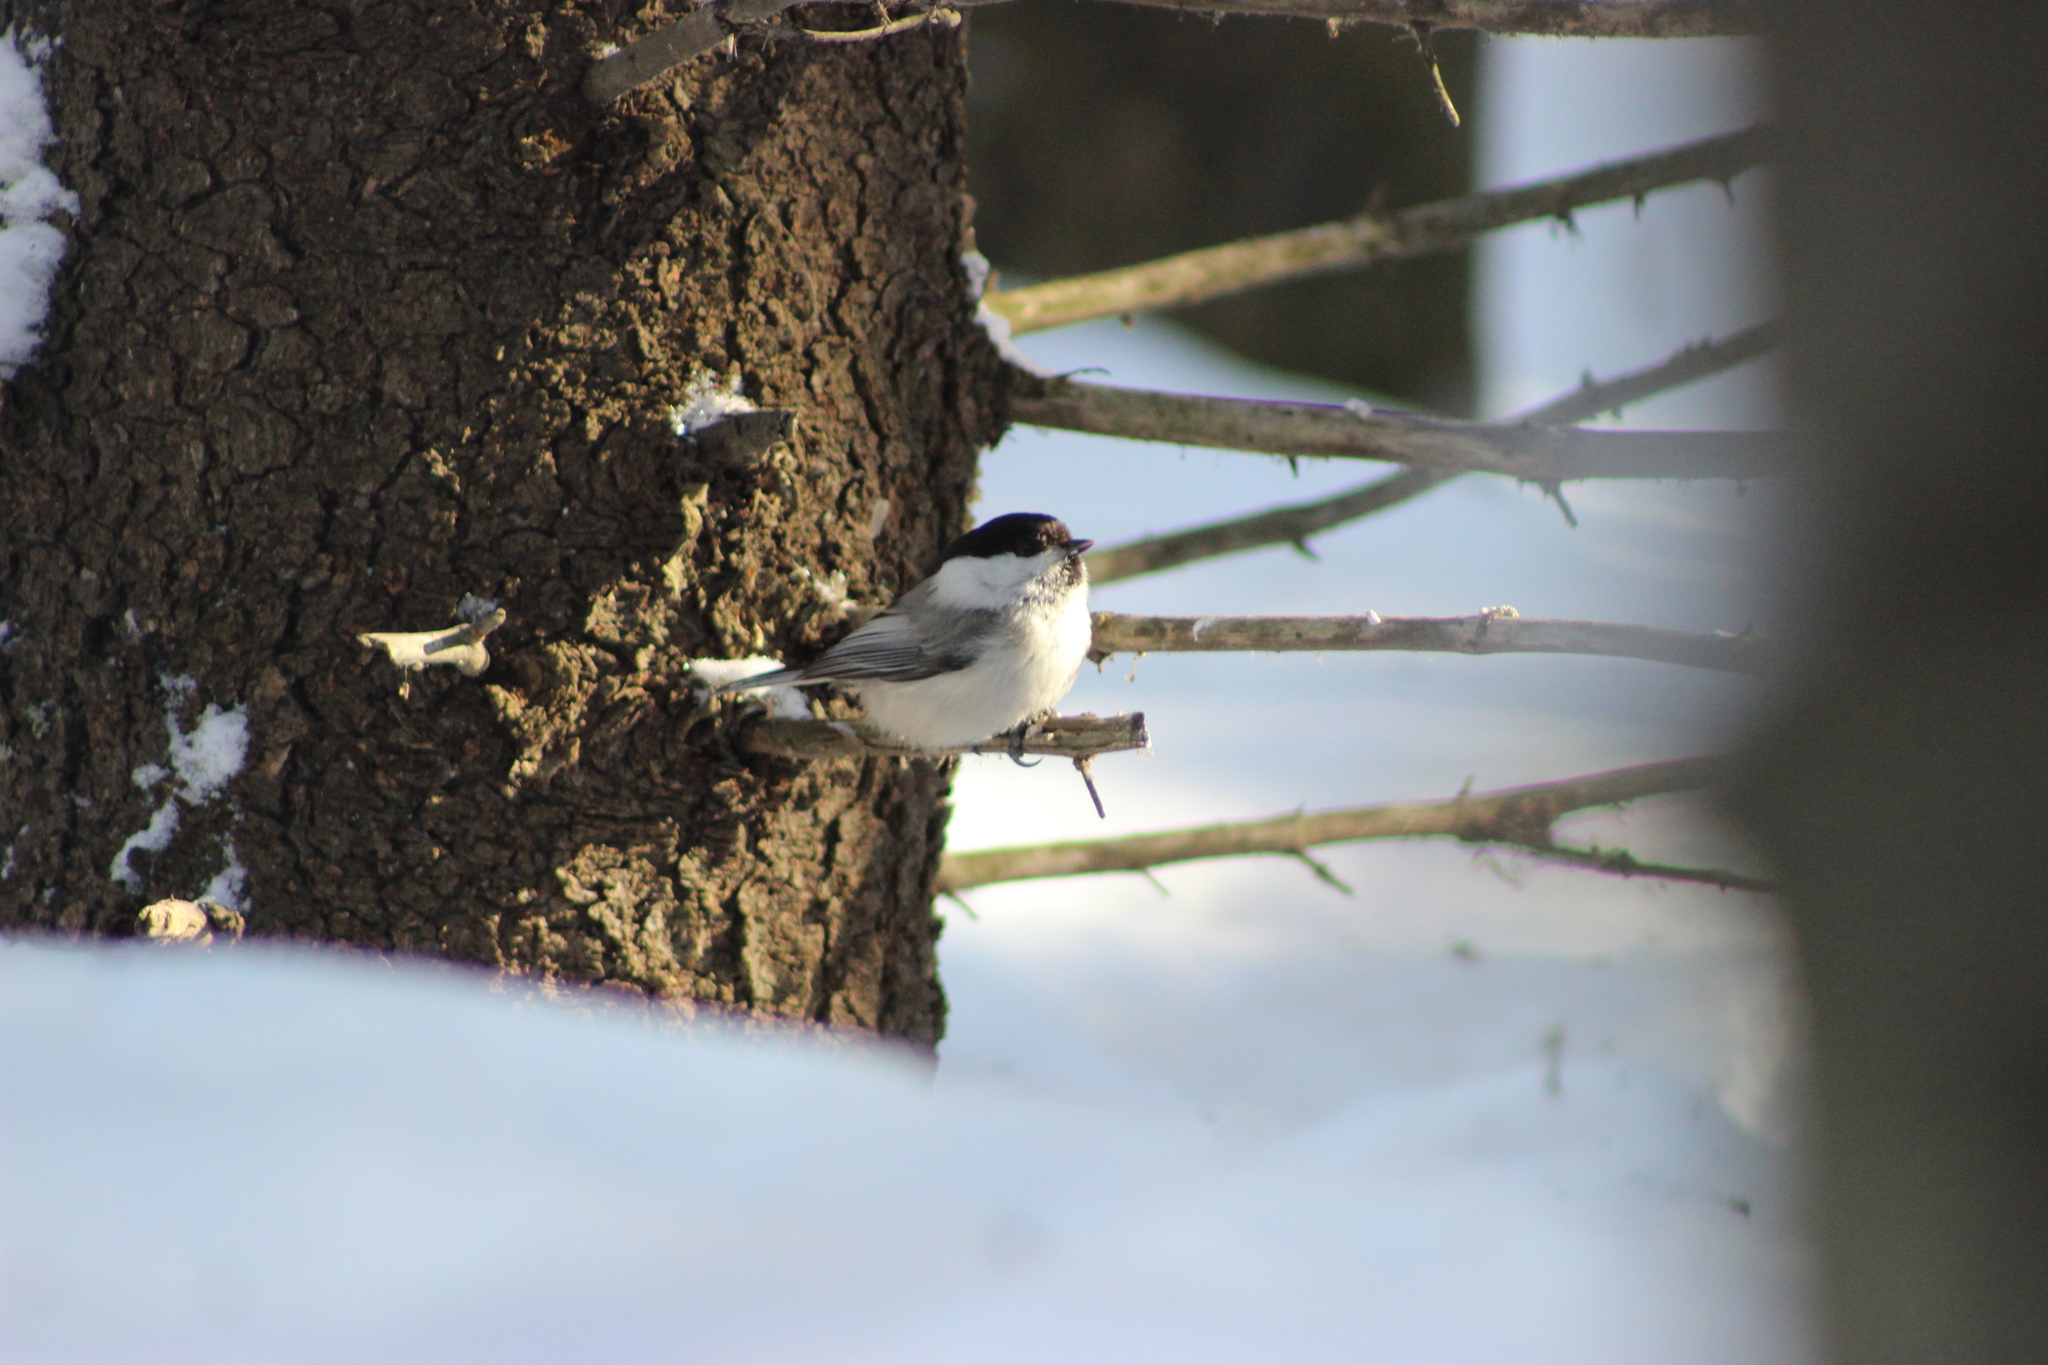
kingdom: Animalia
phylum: Chordata
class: Aves
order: Passeriformes
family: Paridae
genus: Poecile
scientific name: Poecile montanus
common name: Willow tit
